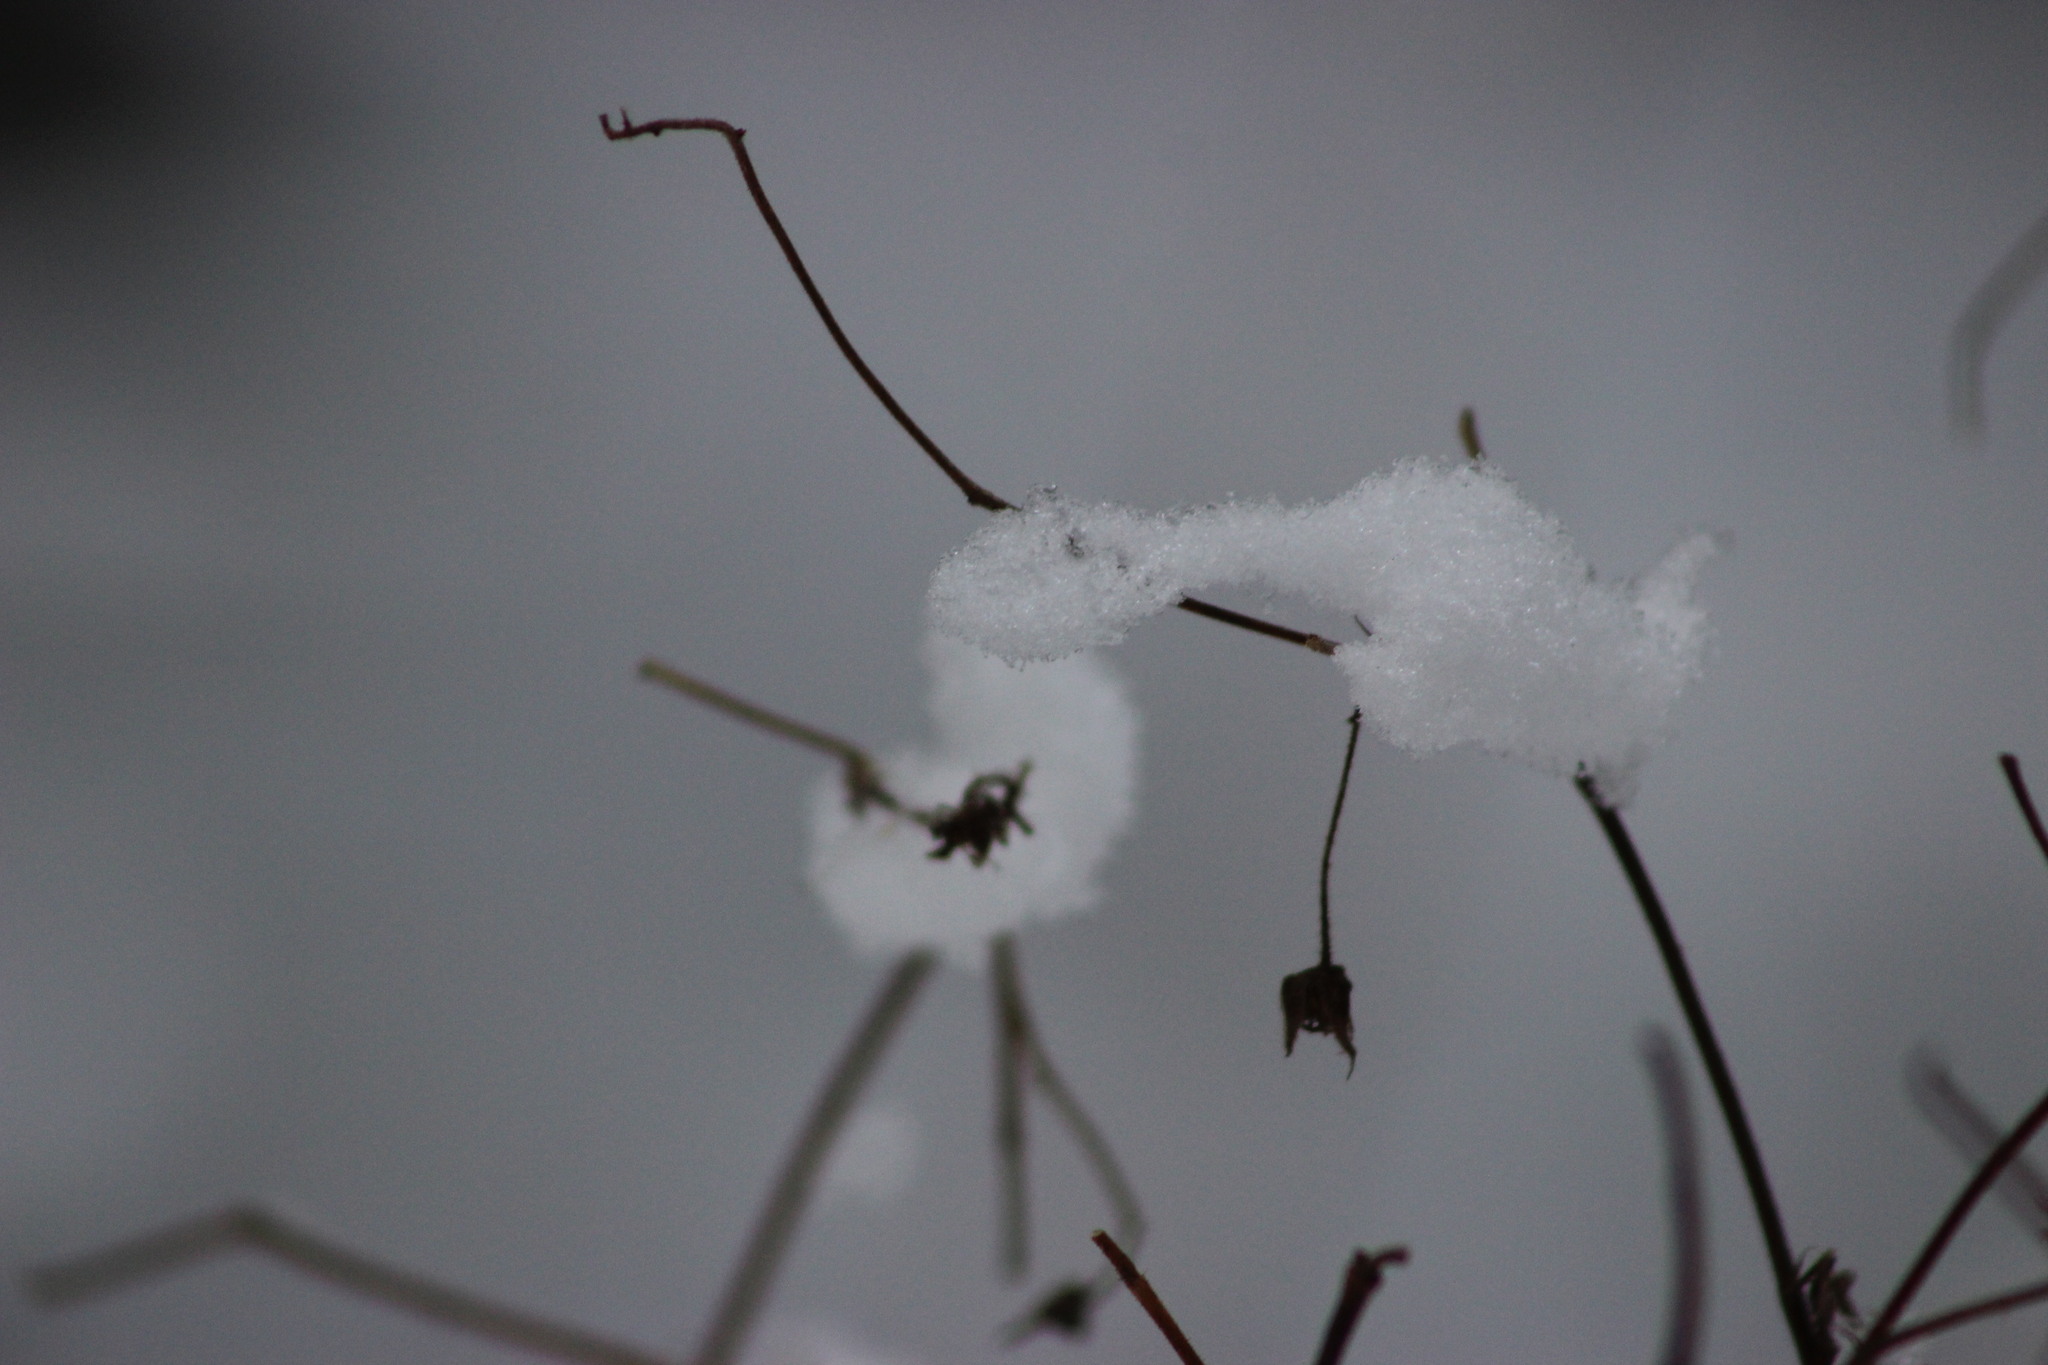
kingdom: Plantae
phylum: Tracheophyta
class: Magnoliopsida
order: Rosales
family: Rosaceae
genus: Rubus
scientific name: Rubus idaeus
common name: Raspberry
